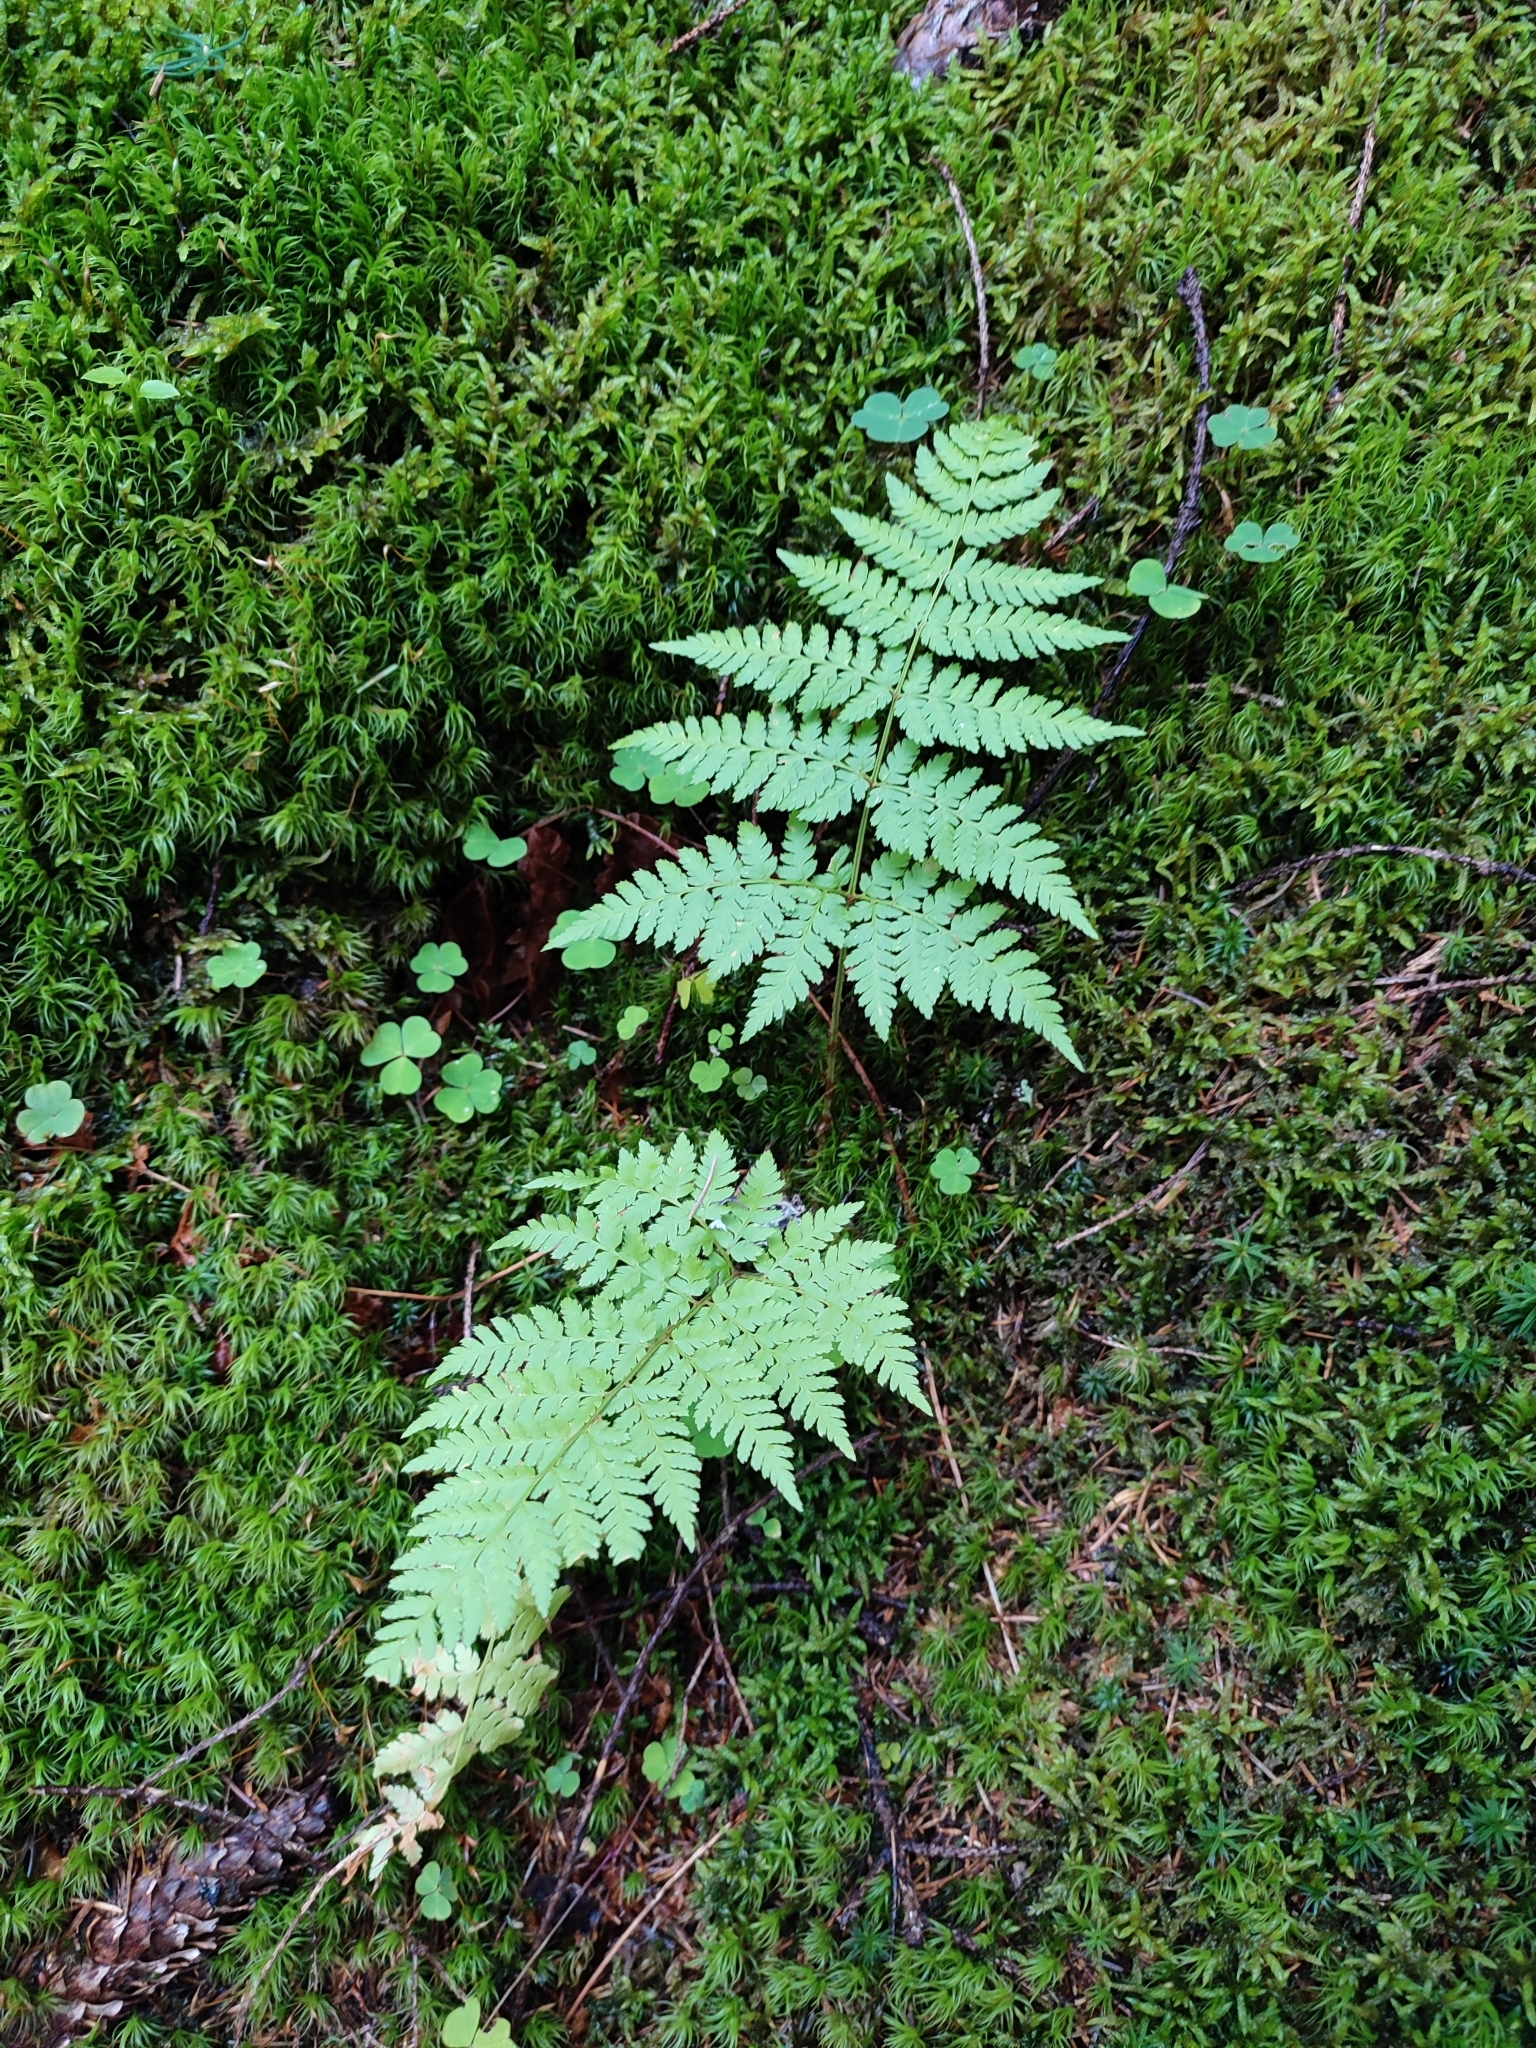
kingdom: Plantae
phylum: Tracheophyta
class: Polypodiopsida
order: Polypodiales
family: Dryopteridaceae
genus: Dryopteris
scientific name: Dryopteris expansa
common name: Northern buckler fern
